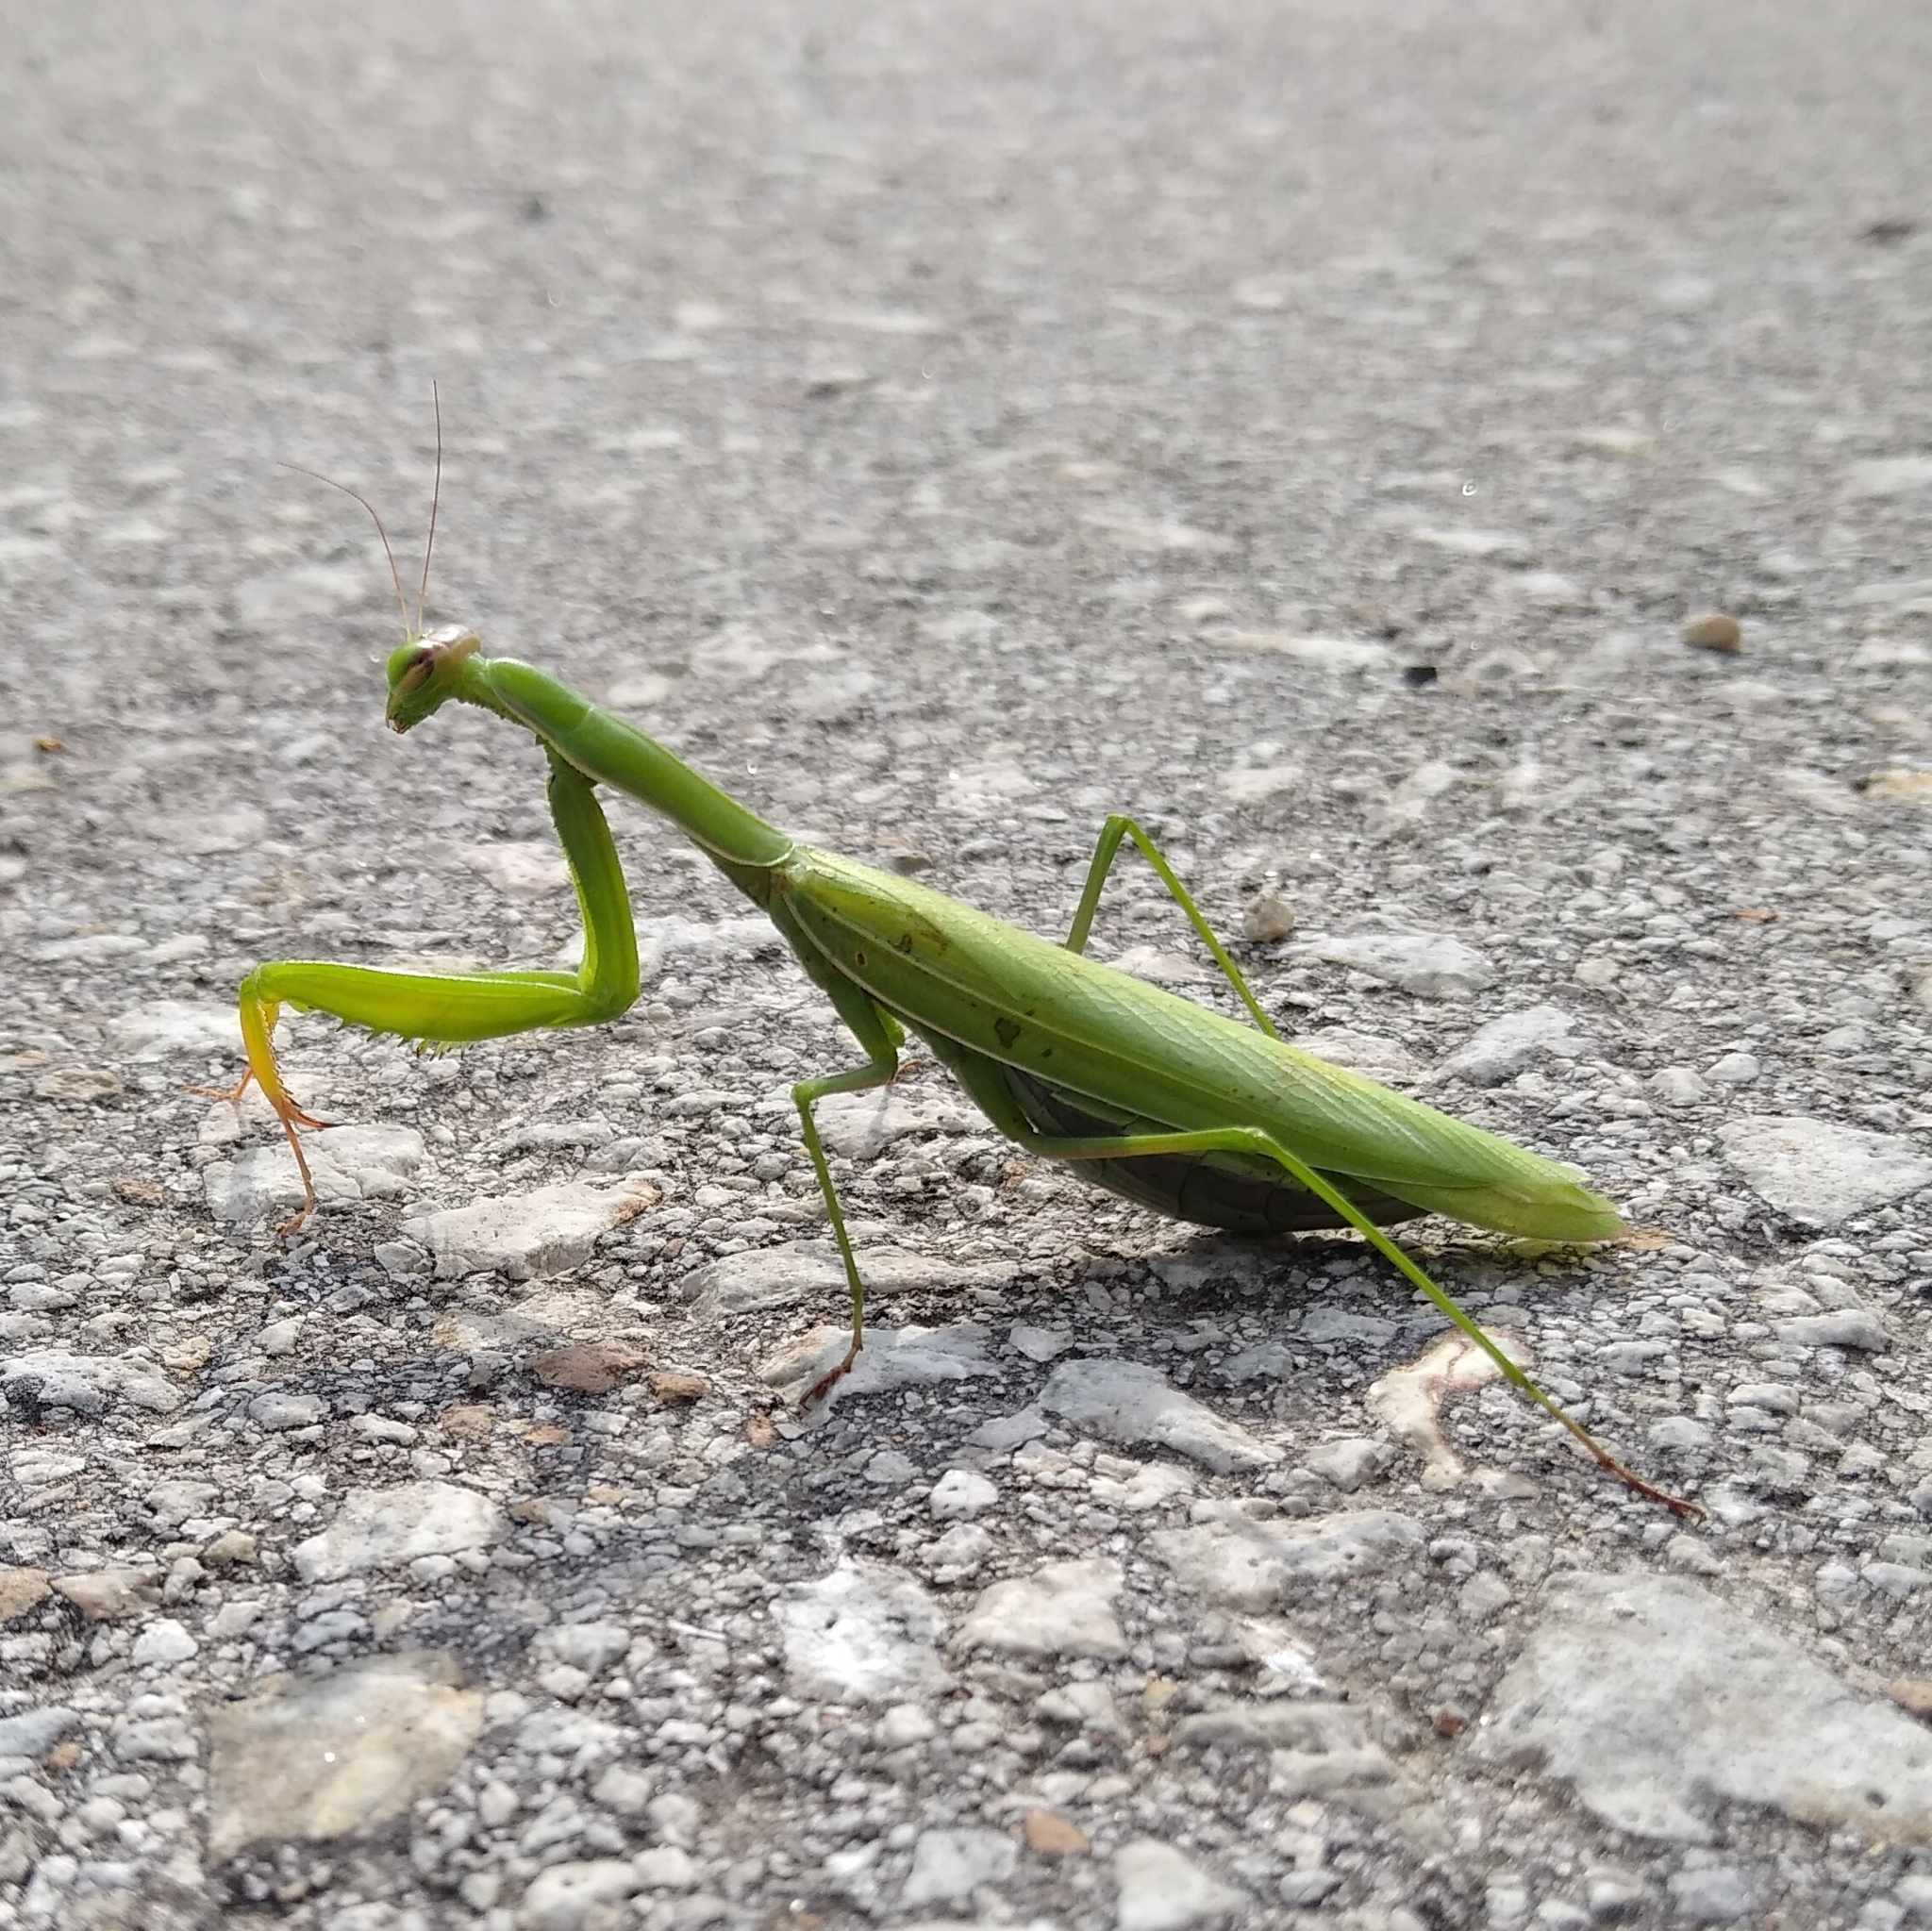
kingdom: Animalia
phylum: Arthropoda
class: Insecta
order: Mantodea
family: Mantidae
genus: Mantis
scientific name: Mantis religiosa
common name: Praying mantis
